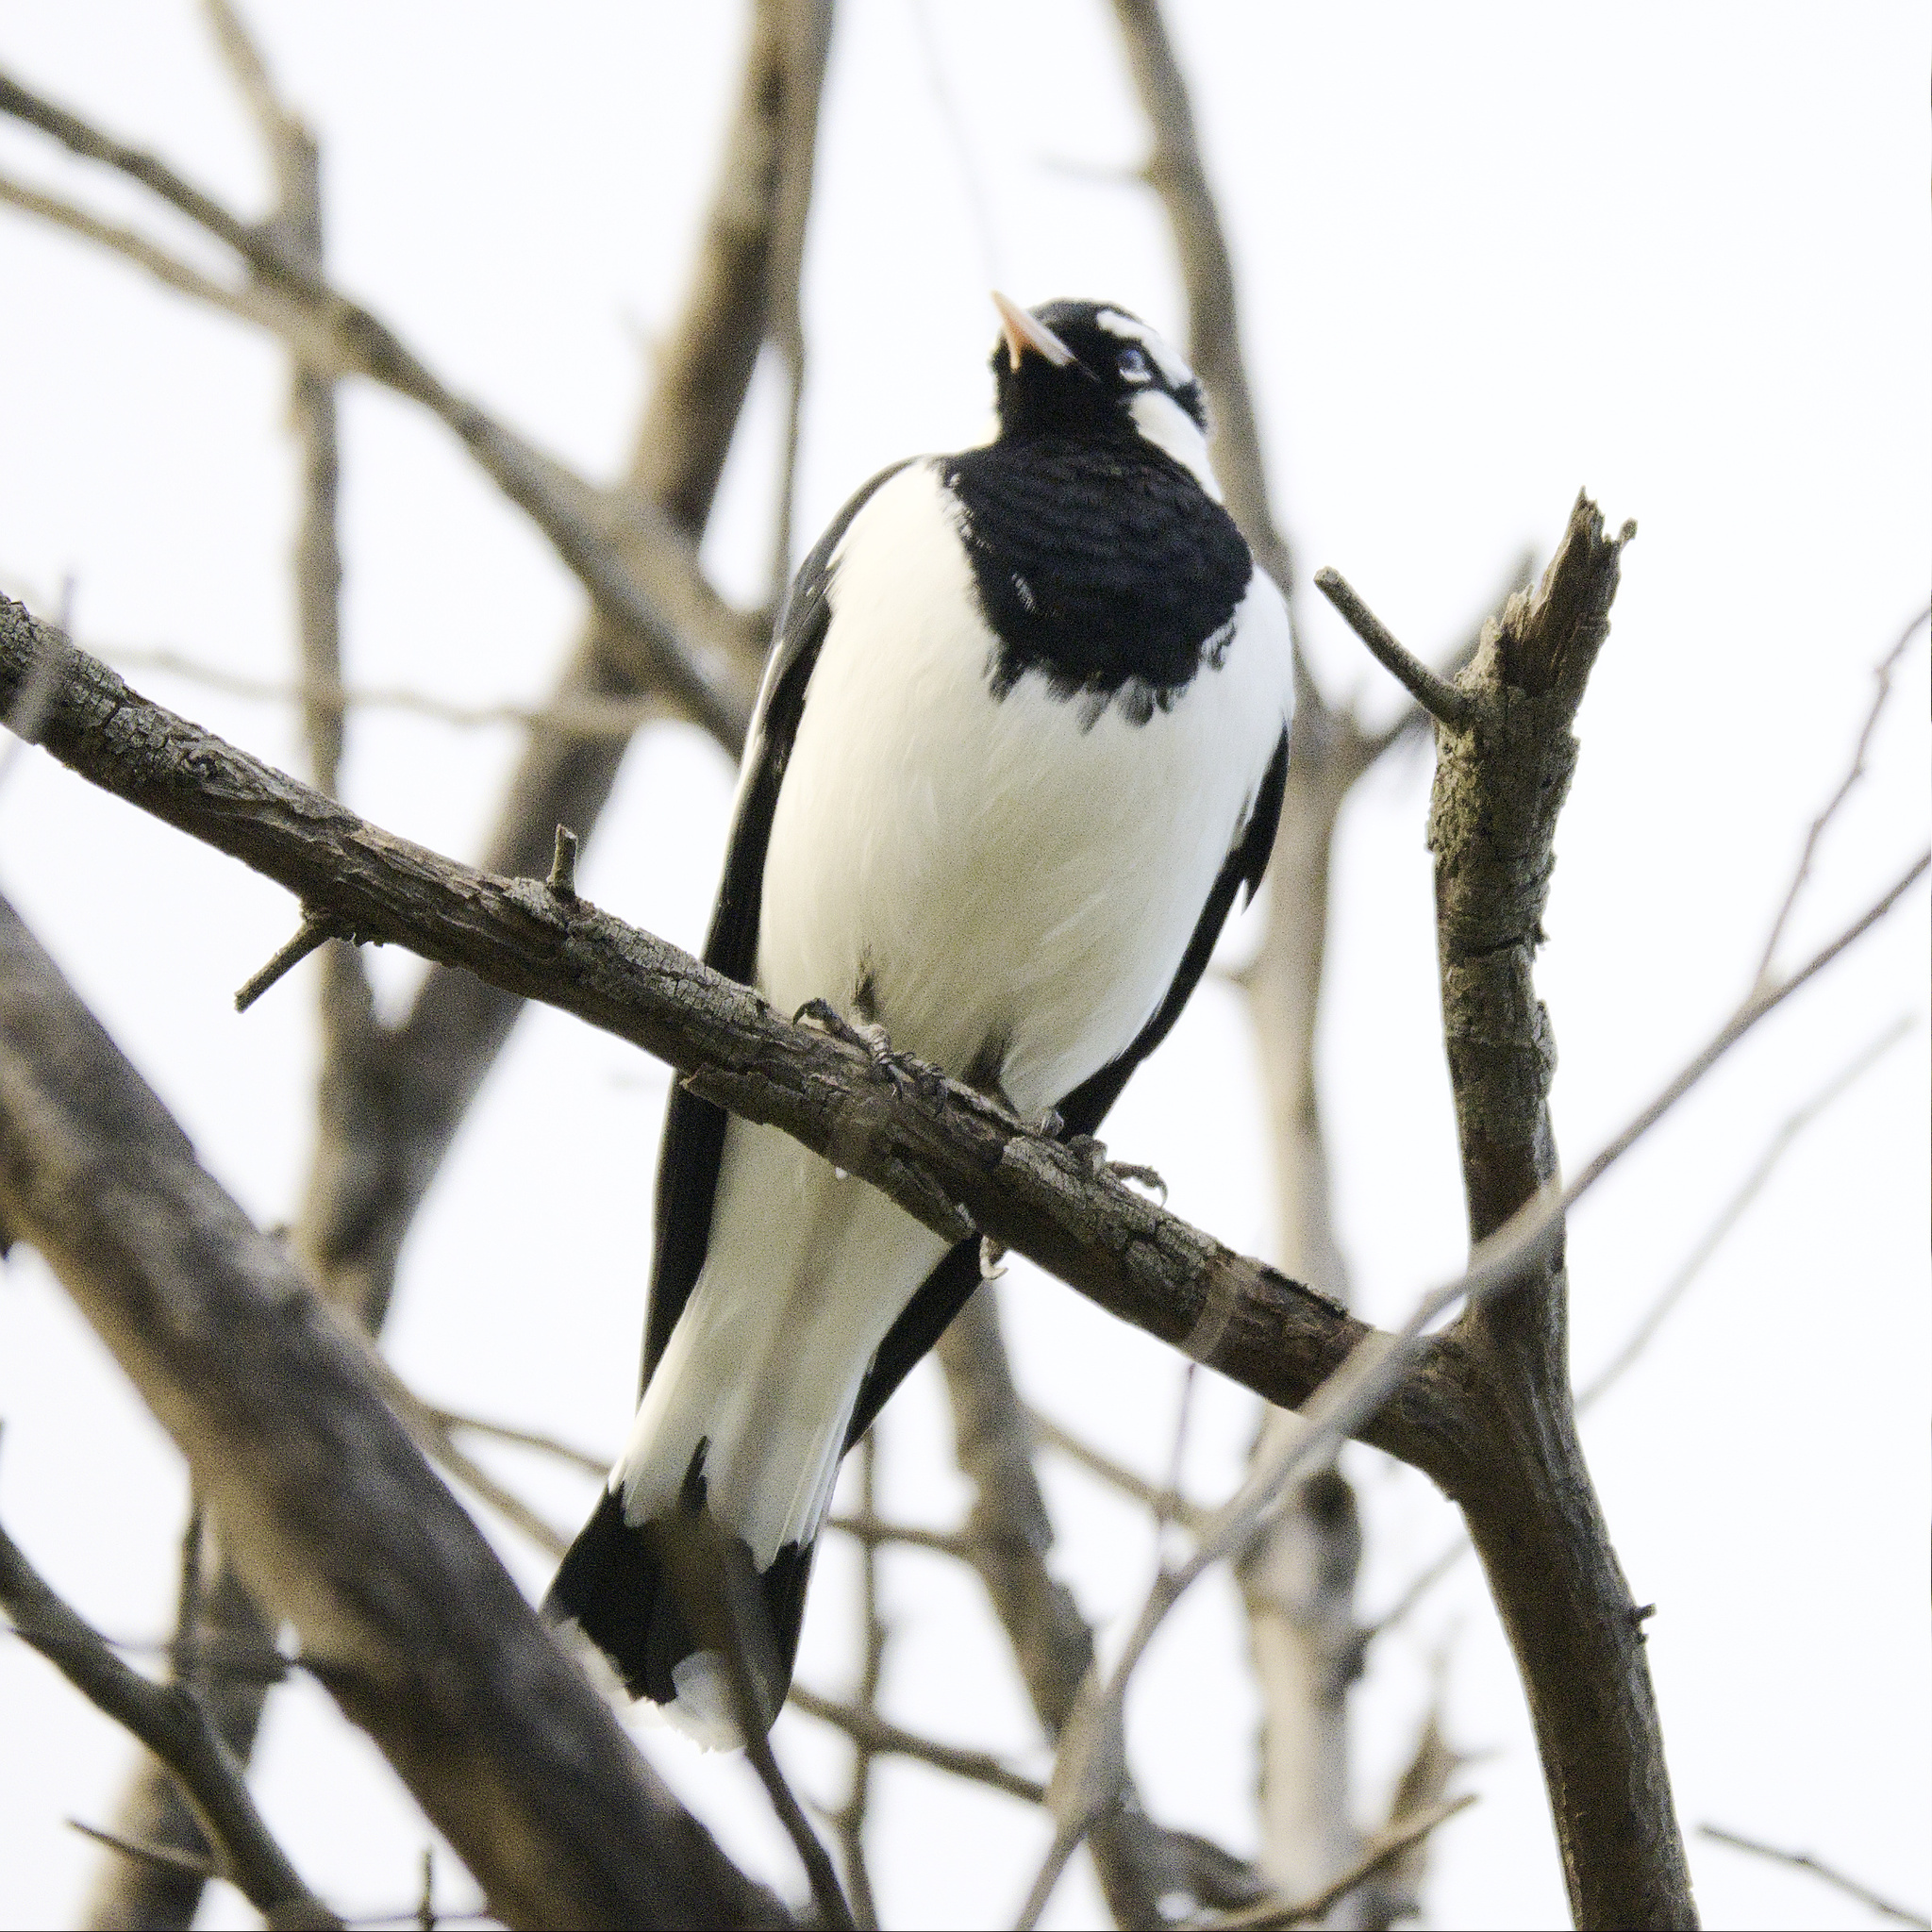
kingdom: Animalia
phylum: Chordata
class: Aves
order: Passeriformes
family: Monarchidae
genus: Grallina
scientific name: Grallina cyanoleuca
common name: Magpie-lark
